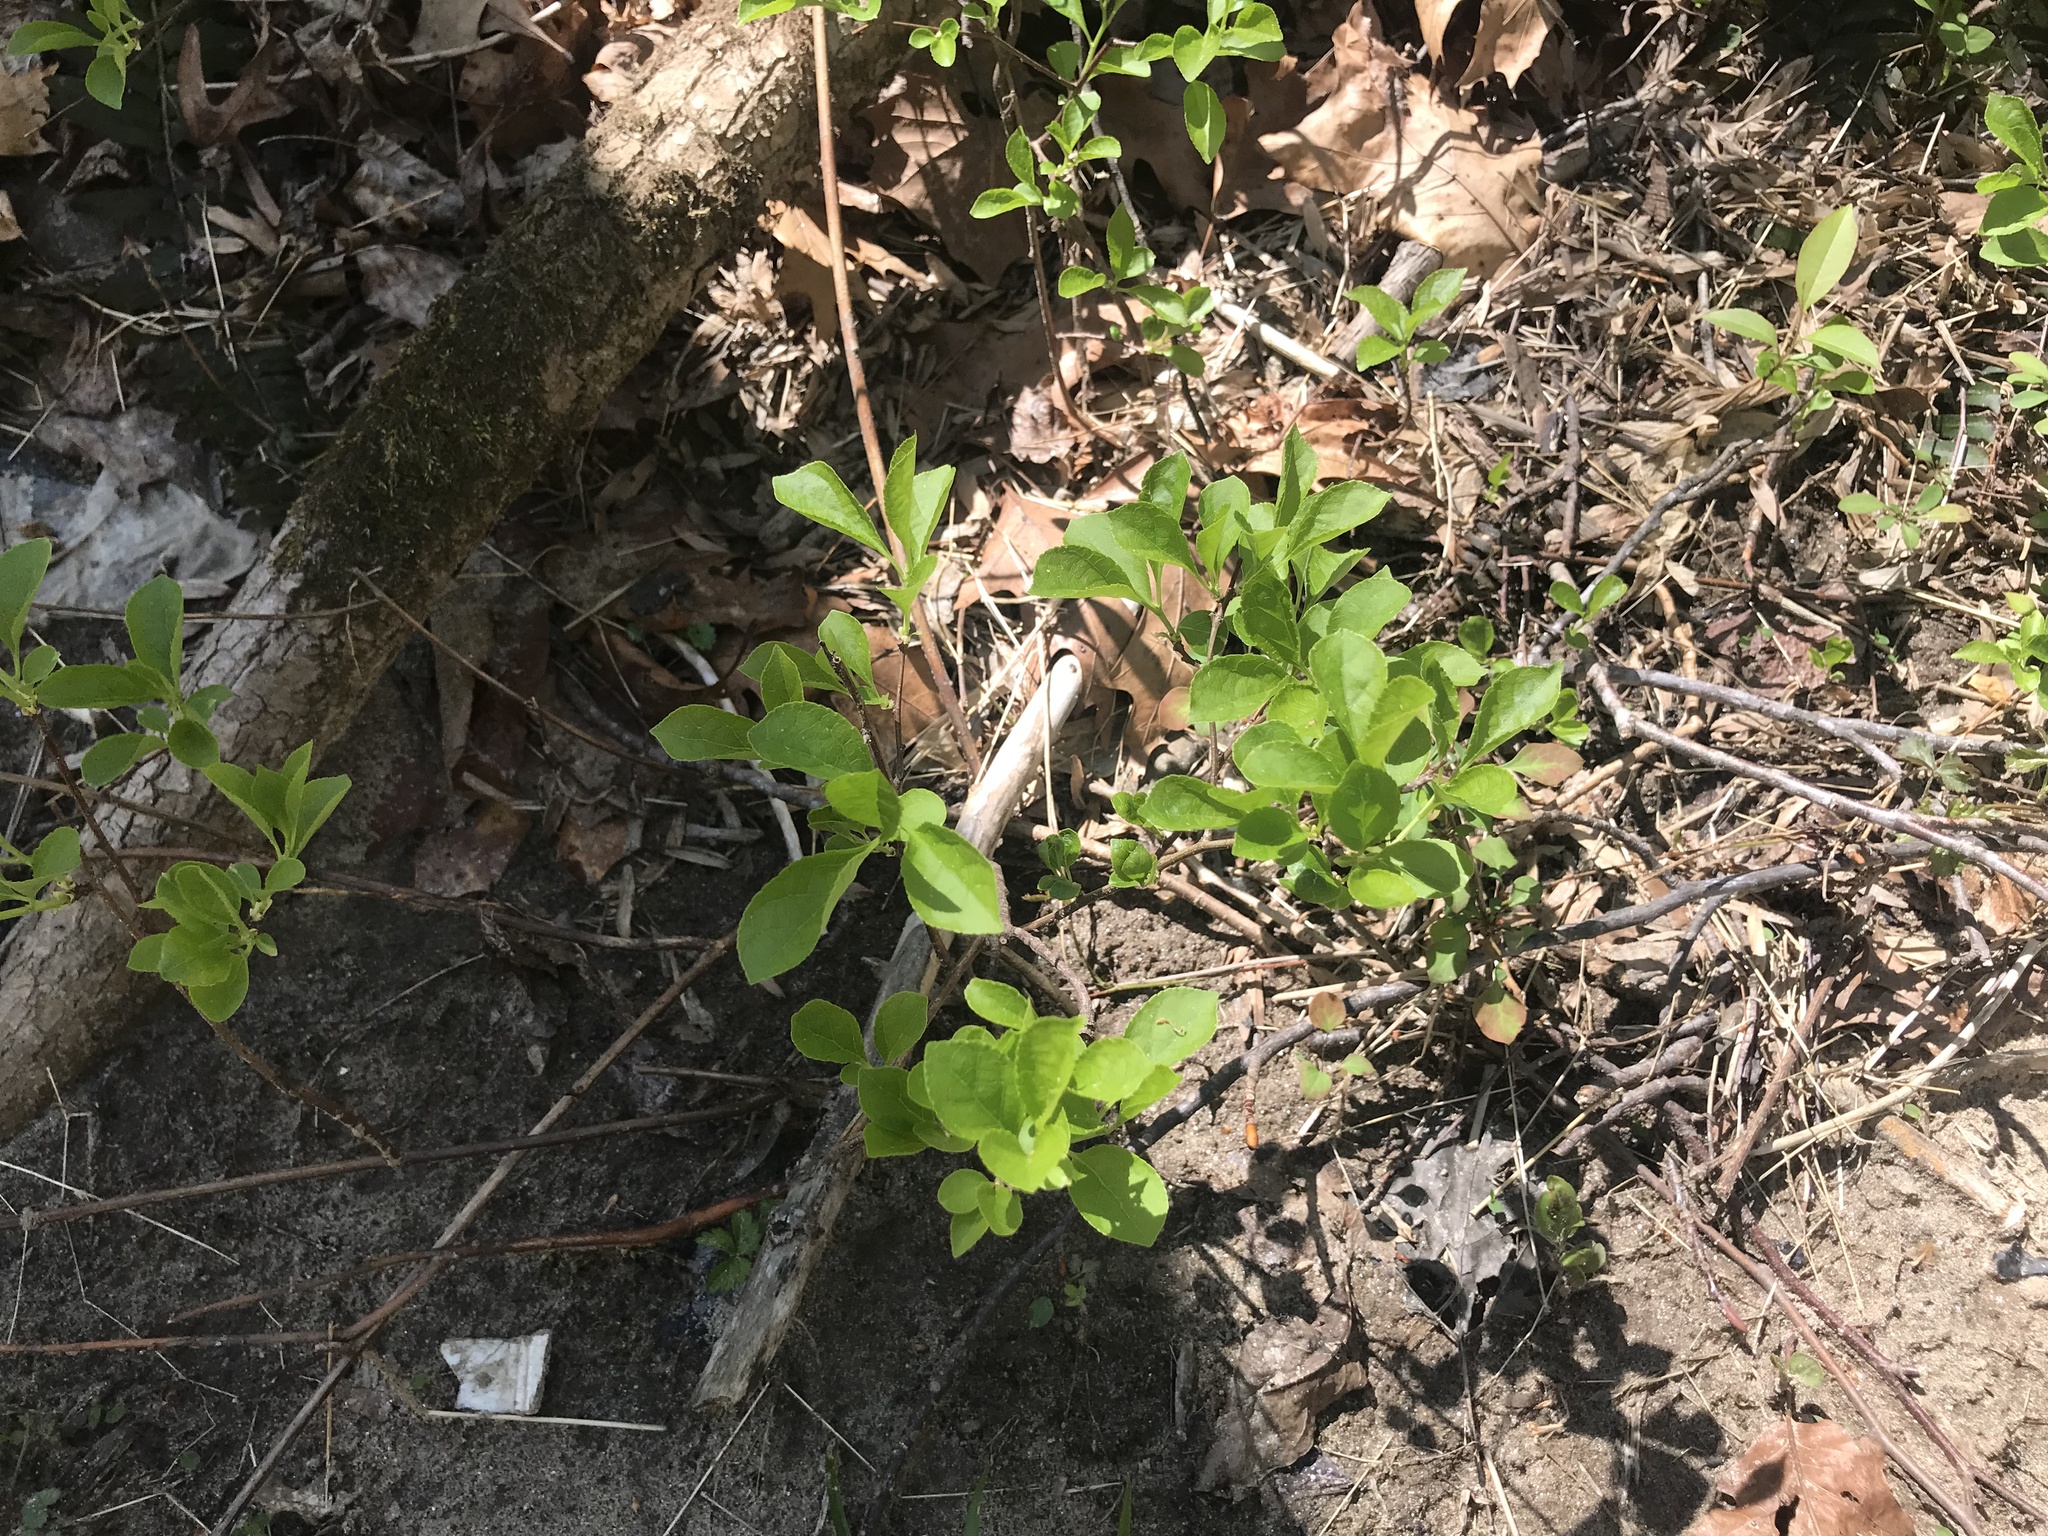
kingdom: Plantae
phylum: Tracheophyta
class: Magnoliopsida
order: Celastrales
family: Celastraceae
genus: Celastrus
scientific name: Celastrus orbiculatus
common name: Oriental bittersweet
